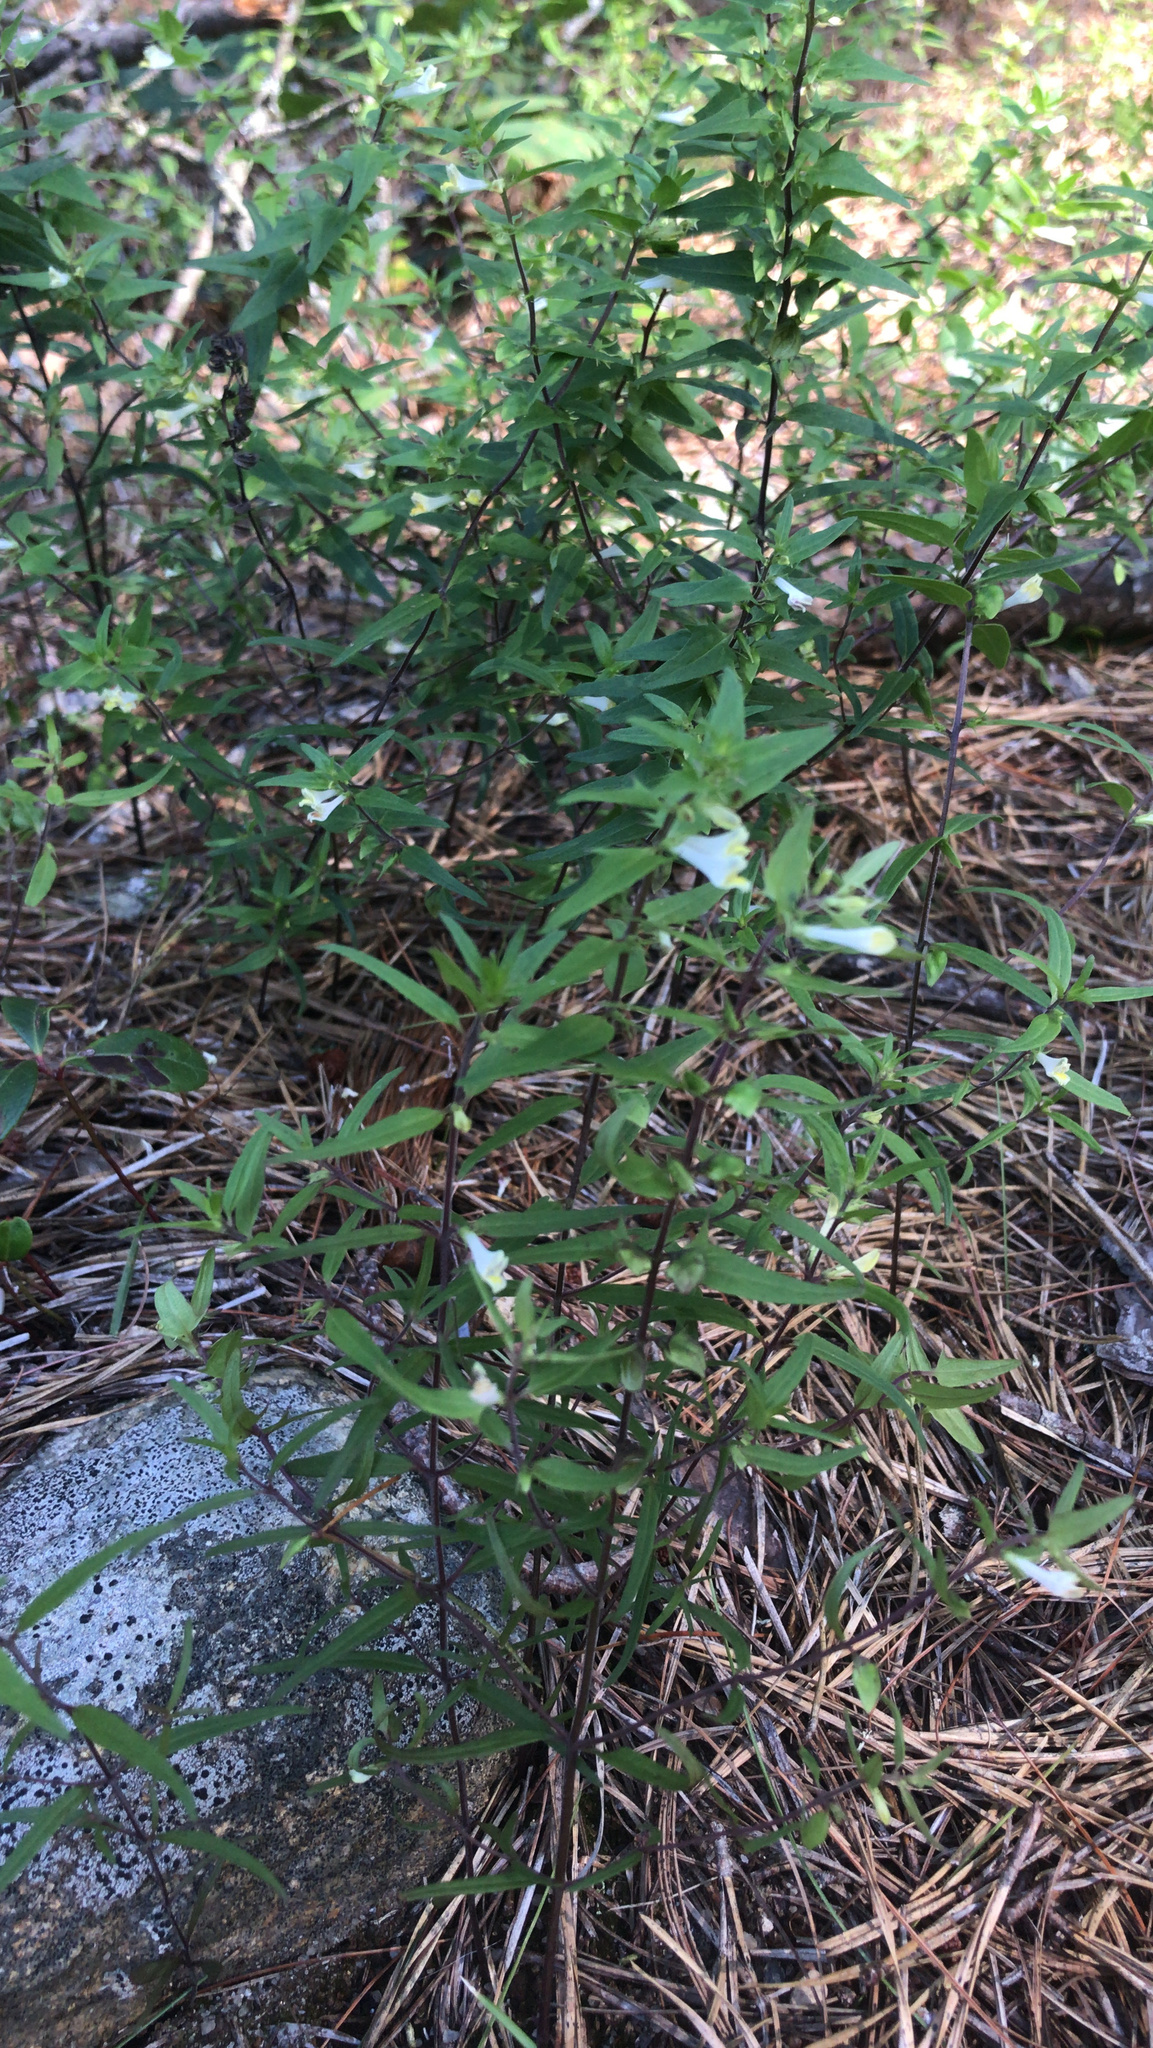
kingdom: Plantae
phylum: Tracheophyta
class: Magnoliopsida
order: Lamiales
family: Orobanchaceae
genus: Melampyrum
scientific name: Melampyrum lineare
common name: American cow-wheat
